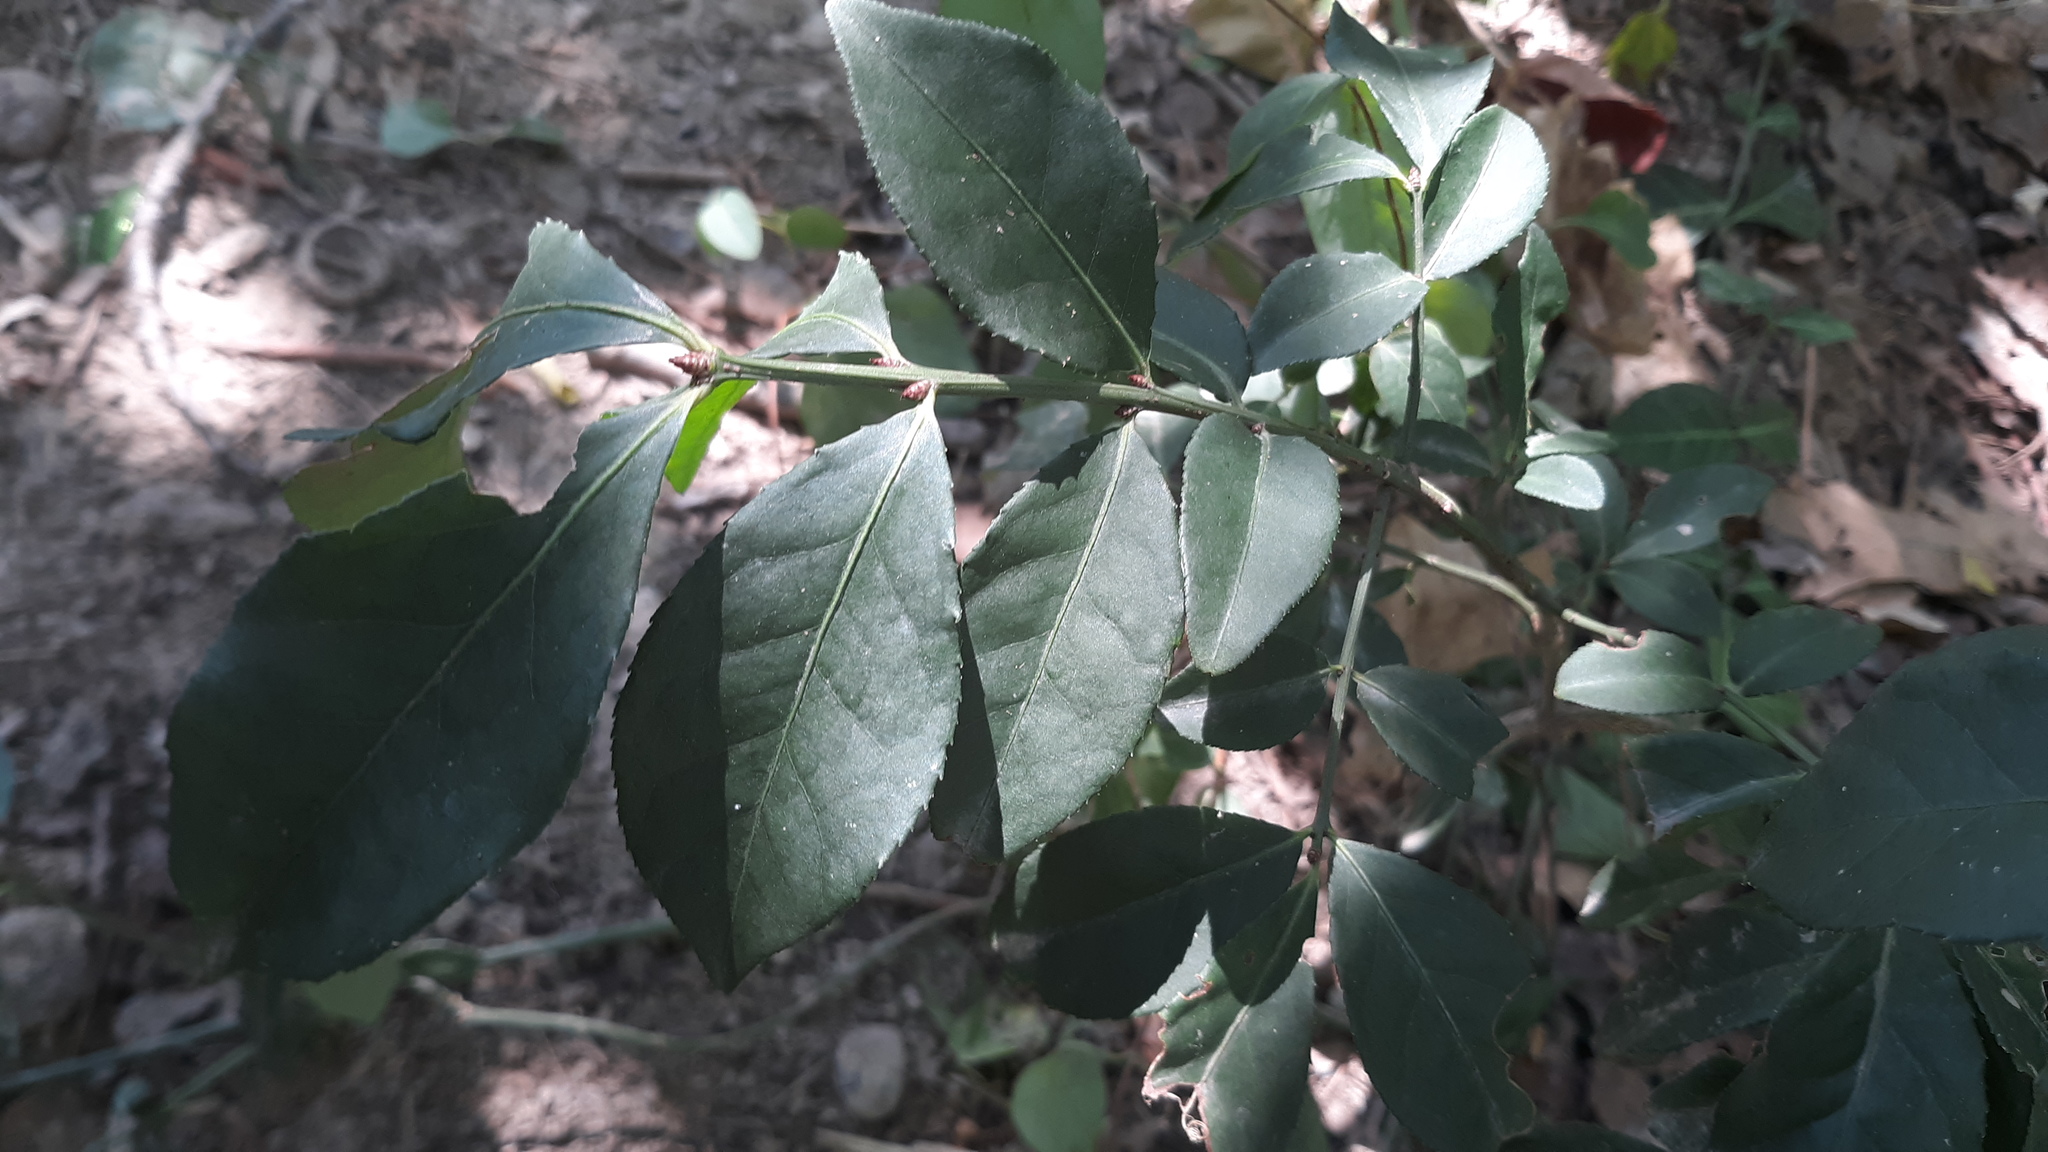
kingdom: Plantae
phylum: Tracheophyta
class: Magnoliopsida
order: Celastrales
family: Celastraceae
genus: Euonymus
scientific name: Euonymus alatus
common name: Winged euonymus
